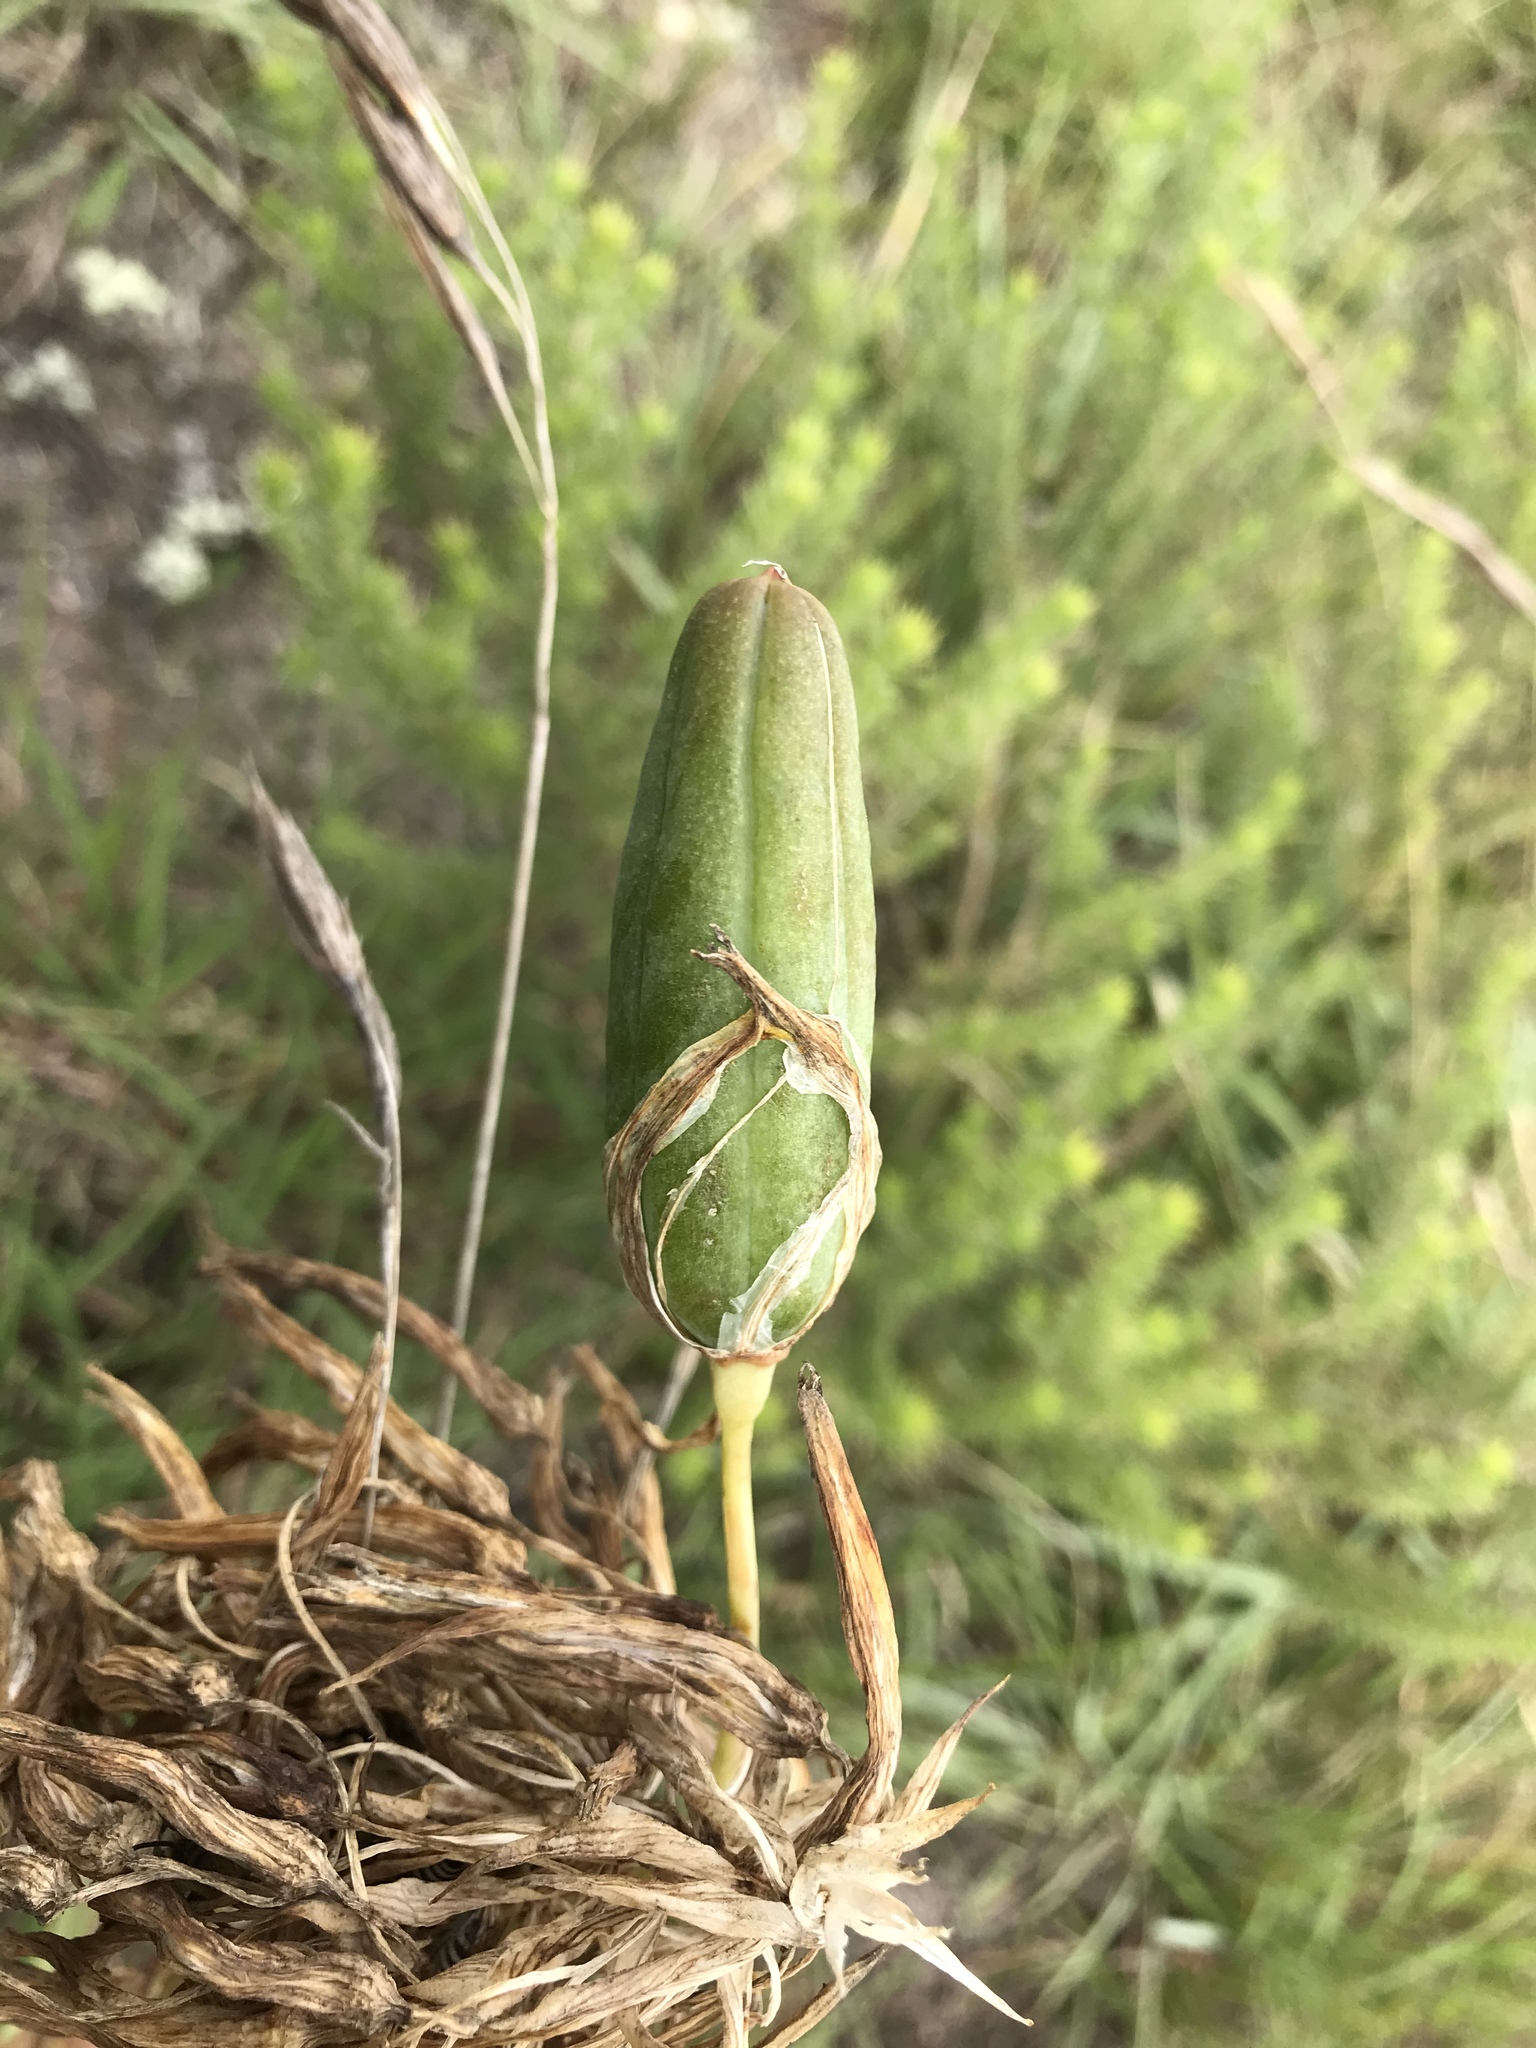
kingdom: Plantae
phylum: Tracheophyta
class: Liliopsida
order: Asparagales
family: Asphodelaceae
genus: Aloe
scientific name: Aloe micracantha
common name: Fynbos grass aloe
